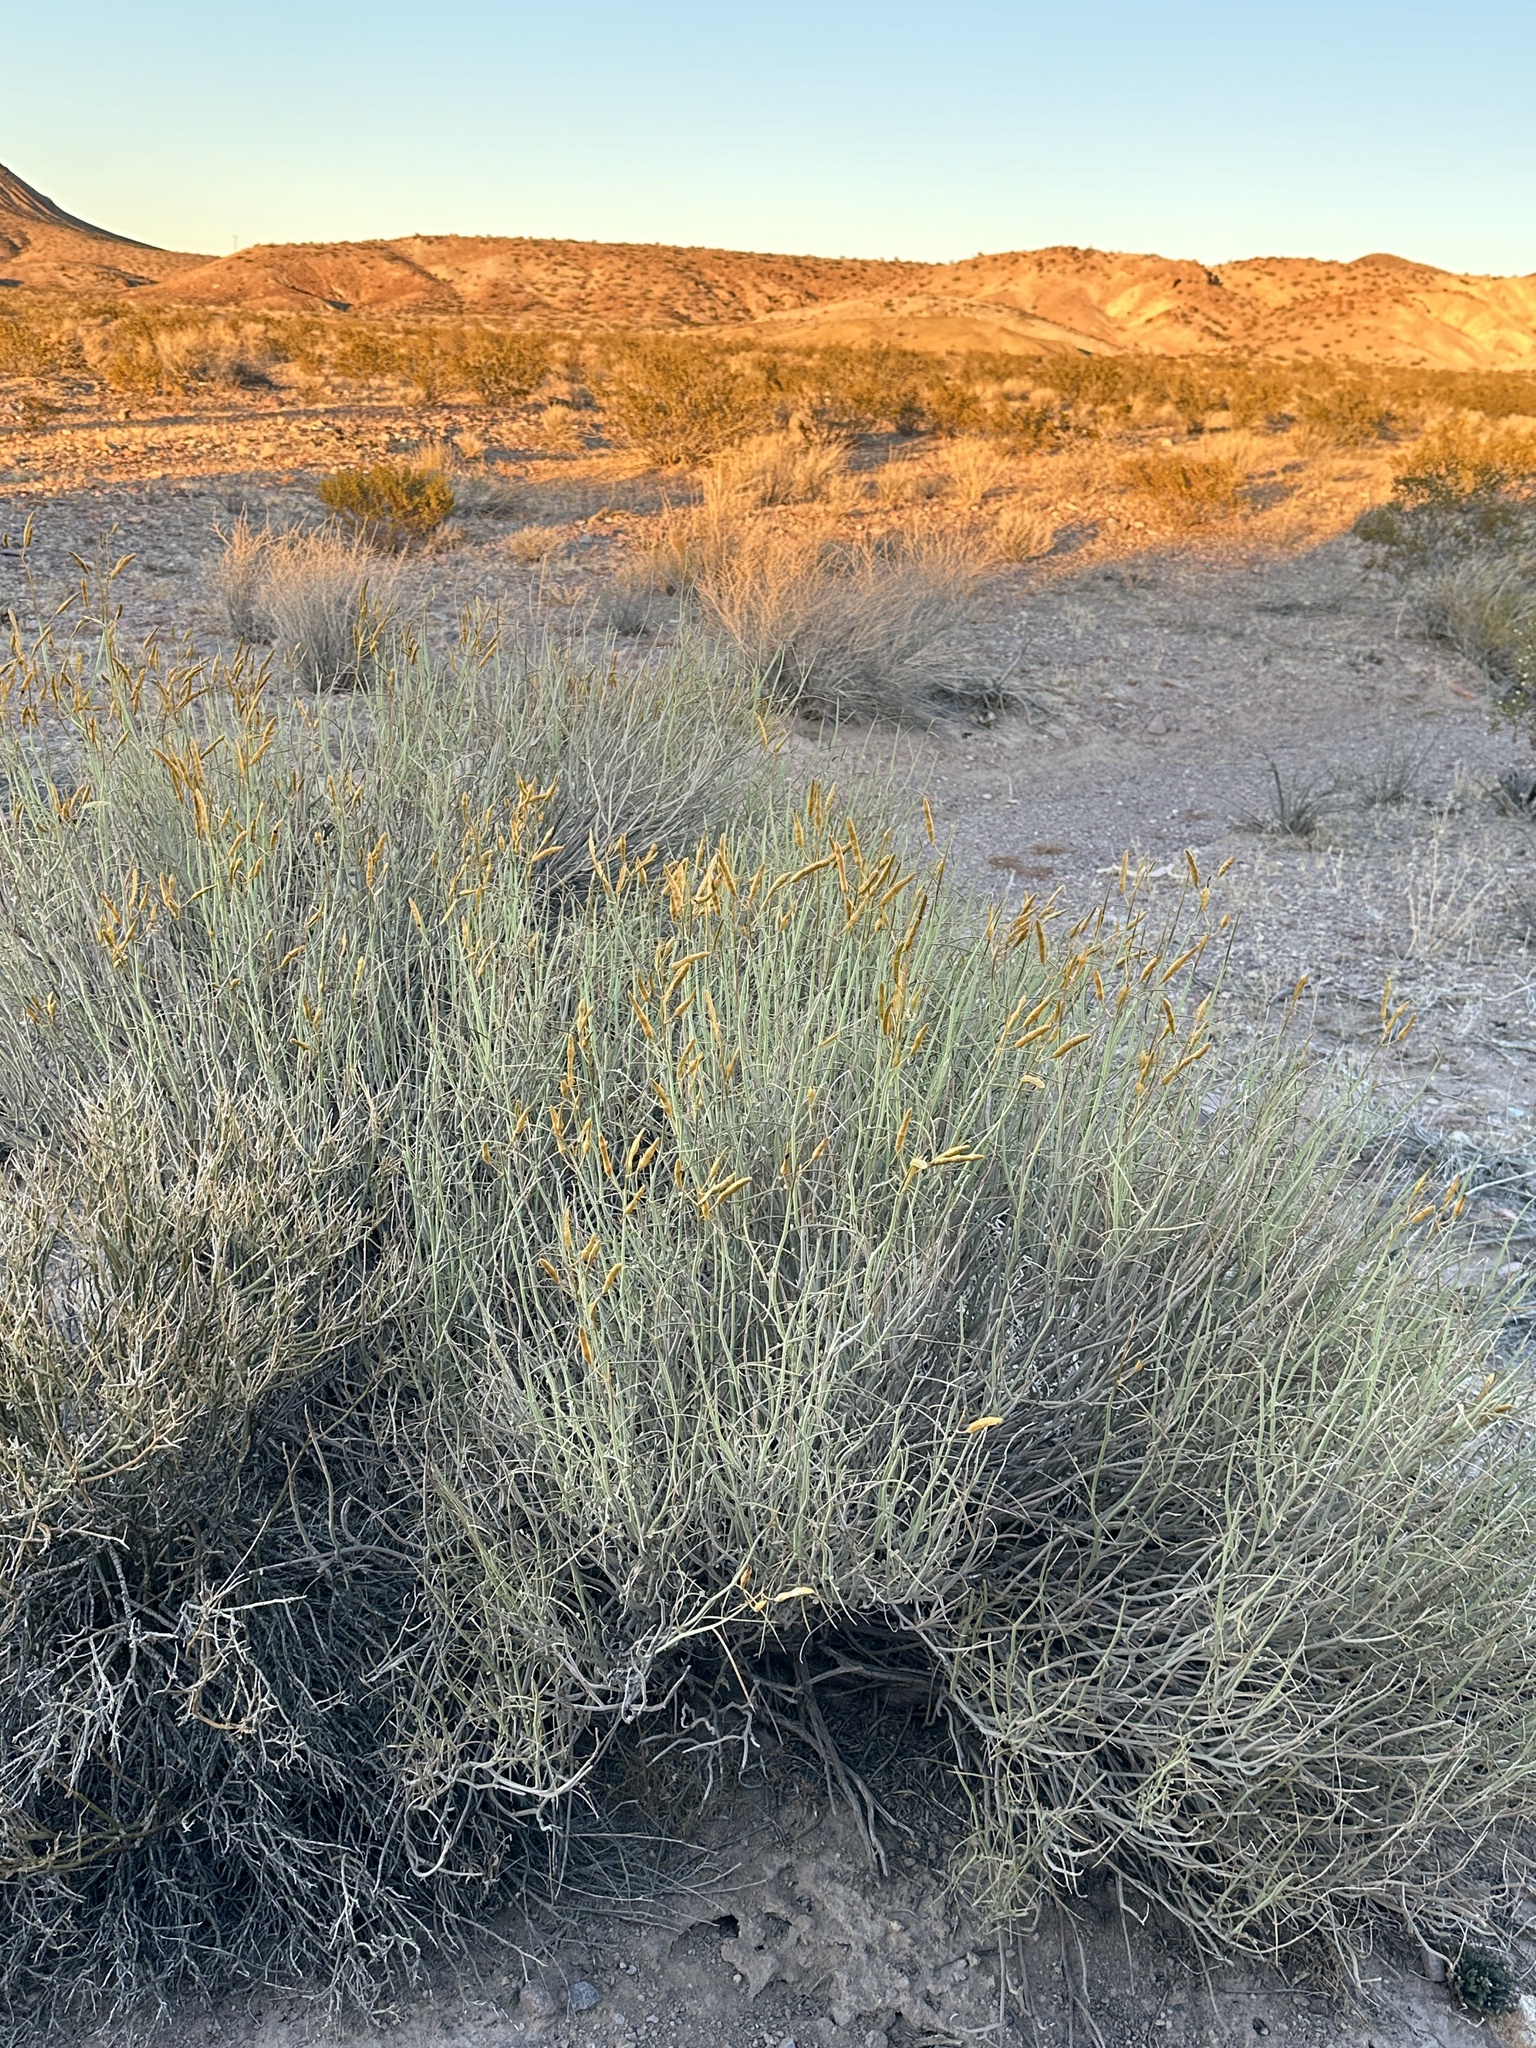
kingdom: Plantae
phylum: Tracheophyta
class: Magnoliopsida
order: Fabales
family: Fabaceae
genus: Senna
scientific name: Senna armata
